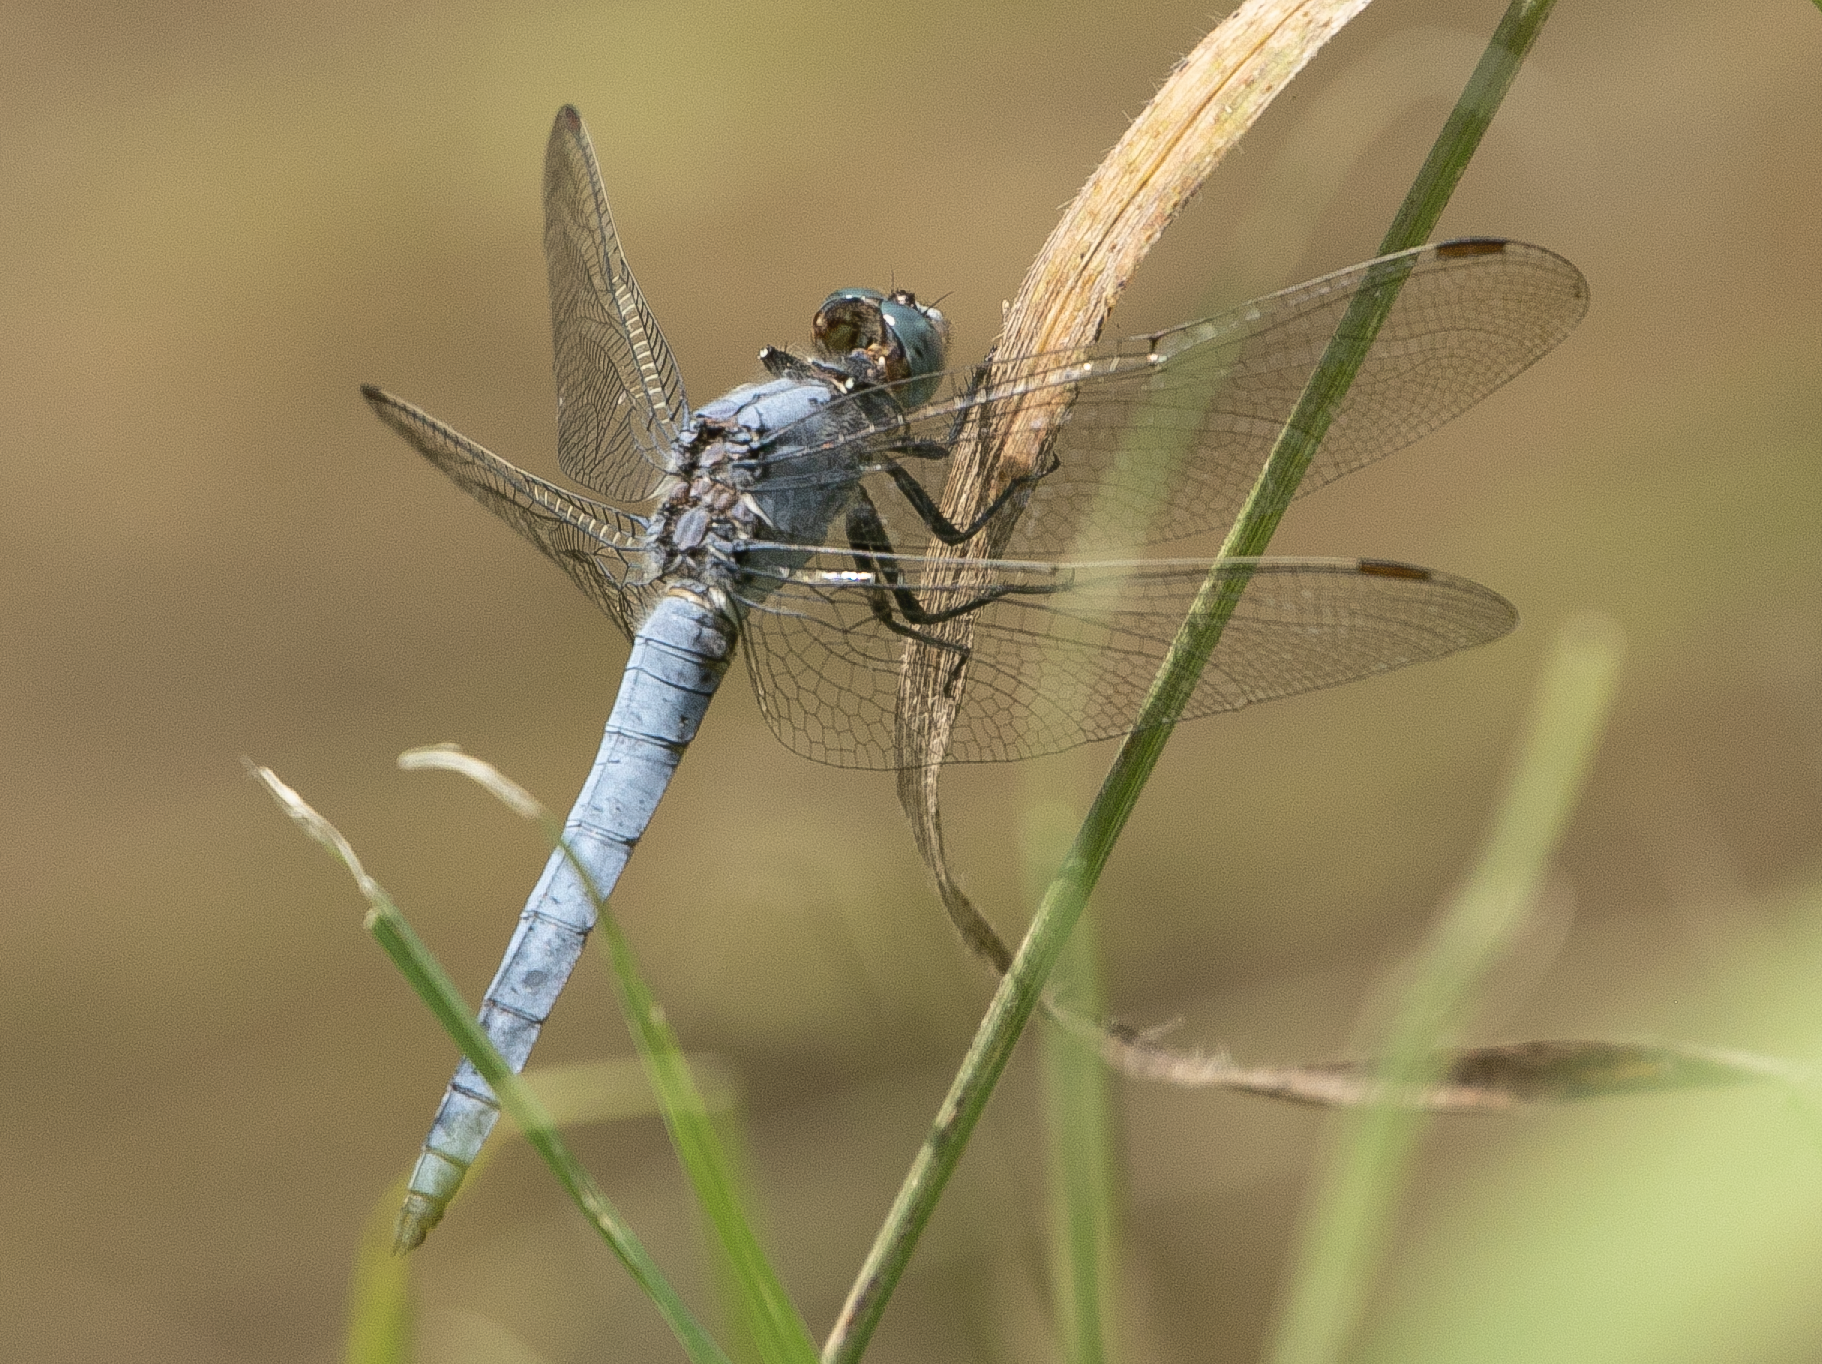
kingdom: Animalia
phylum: Arthropoda
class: Insecta
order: Odonata
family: Libellulidae
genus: Orthetrum
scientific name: Orthetrum brunneum
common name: Southern skimmer
